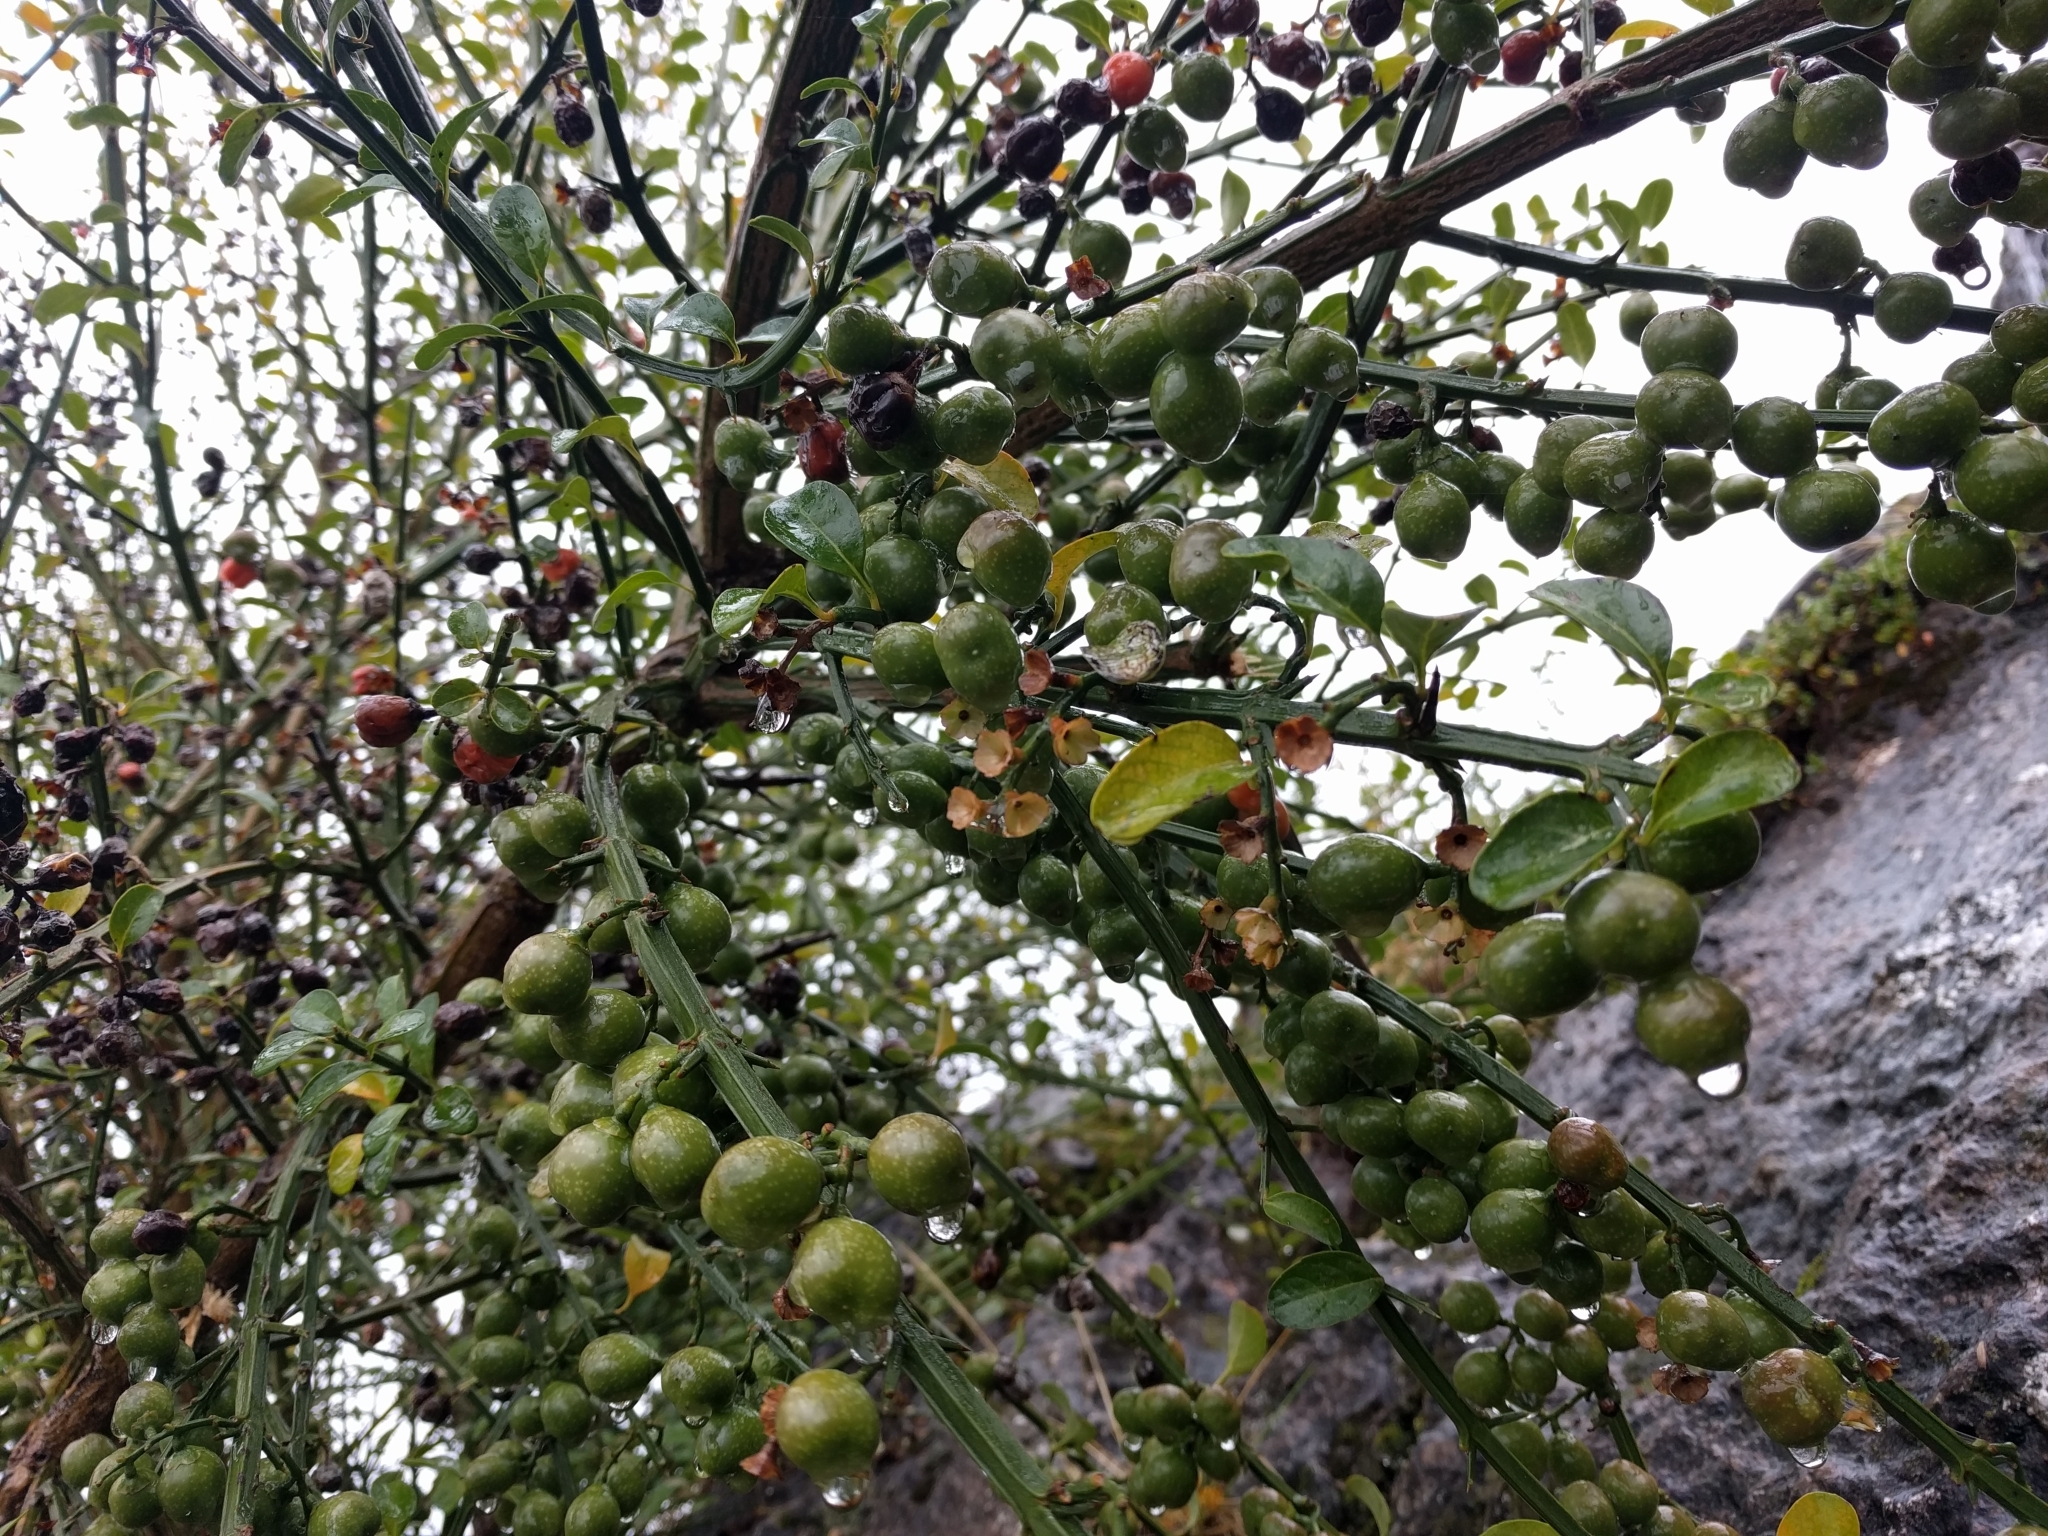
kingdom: Plantae
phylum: Tracheophyta
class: Magnoliopsida
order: Lamiales
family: Verbenaceae
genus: Citharexylum
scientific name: Citharexylum herrerae
